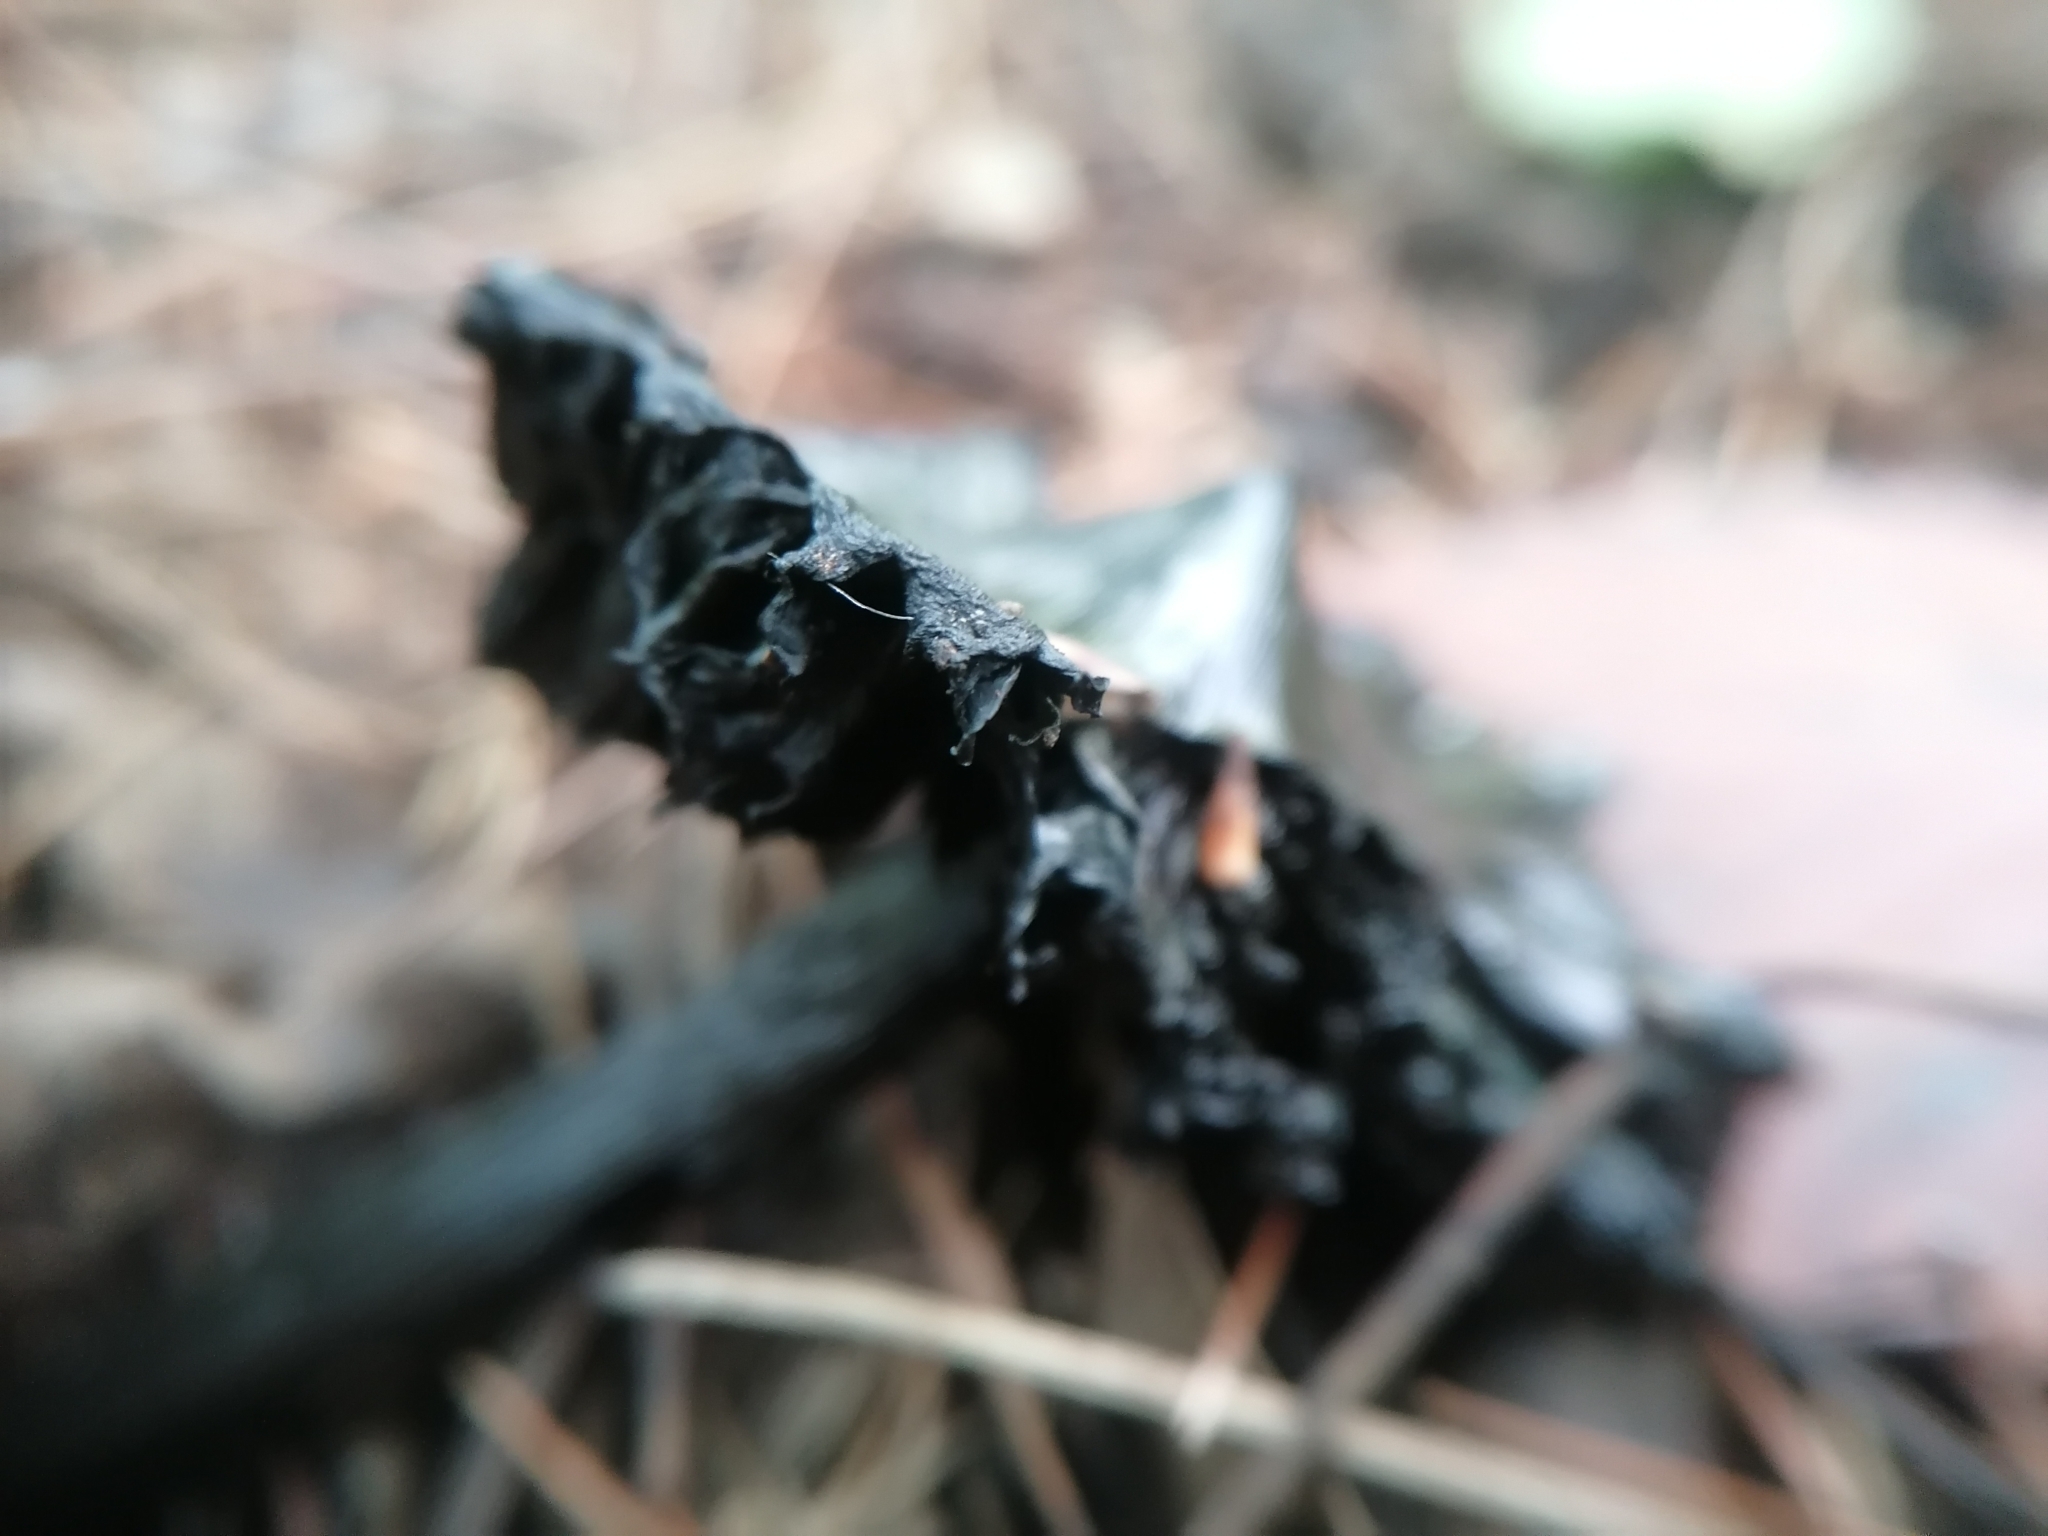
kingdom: Fungi
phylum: Basidiomycota
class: Agaricomycetes
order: Agaricales
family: Hygrophoraceae
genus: Hygrocybe
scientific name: Hygrocybe conica
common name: Blackening wax-cap
